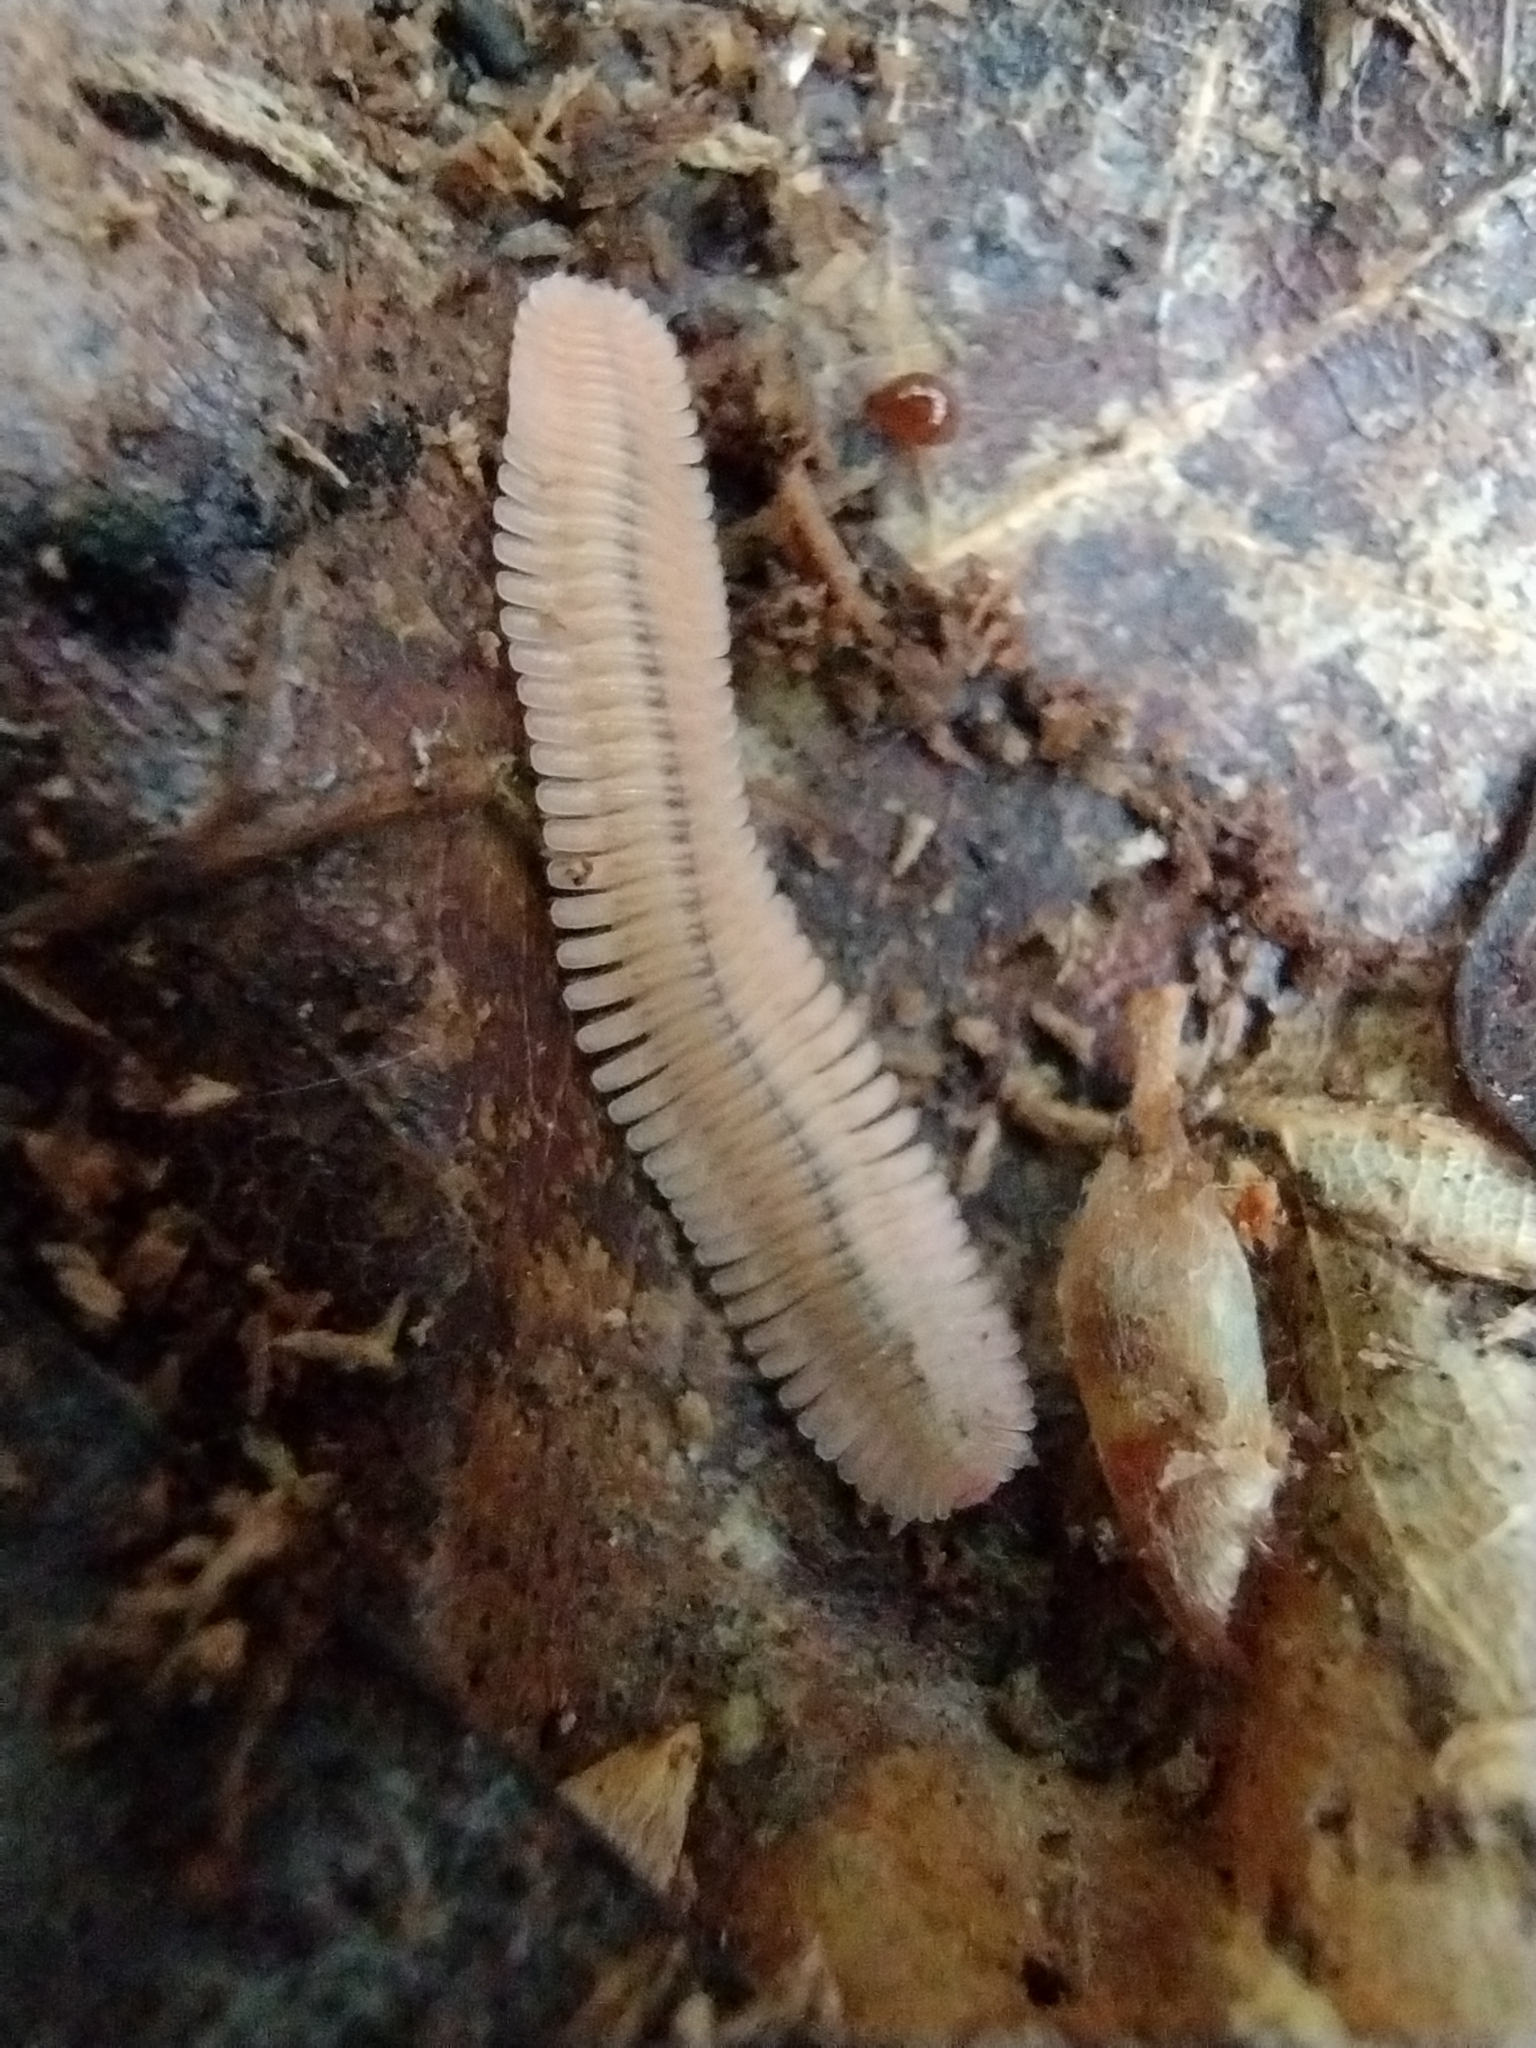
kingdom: Animalia
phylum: Arthropoda
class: Diplopoda
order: Platydesmida
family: Andrognathidae
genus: Brachycybe
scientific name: Brachycybe lecontii
